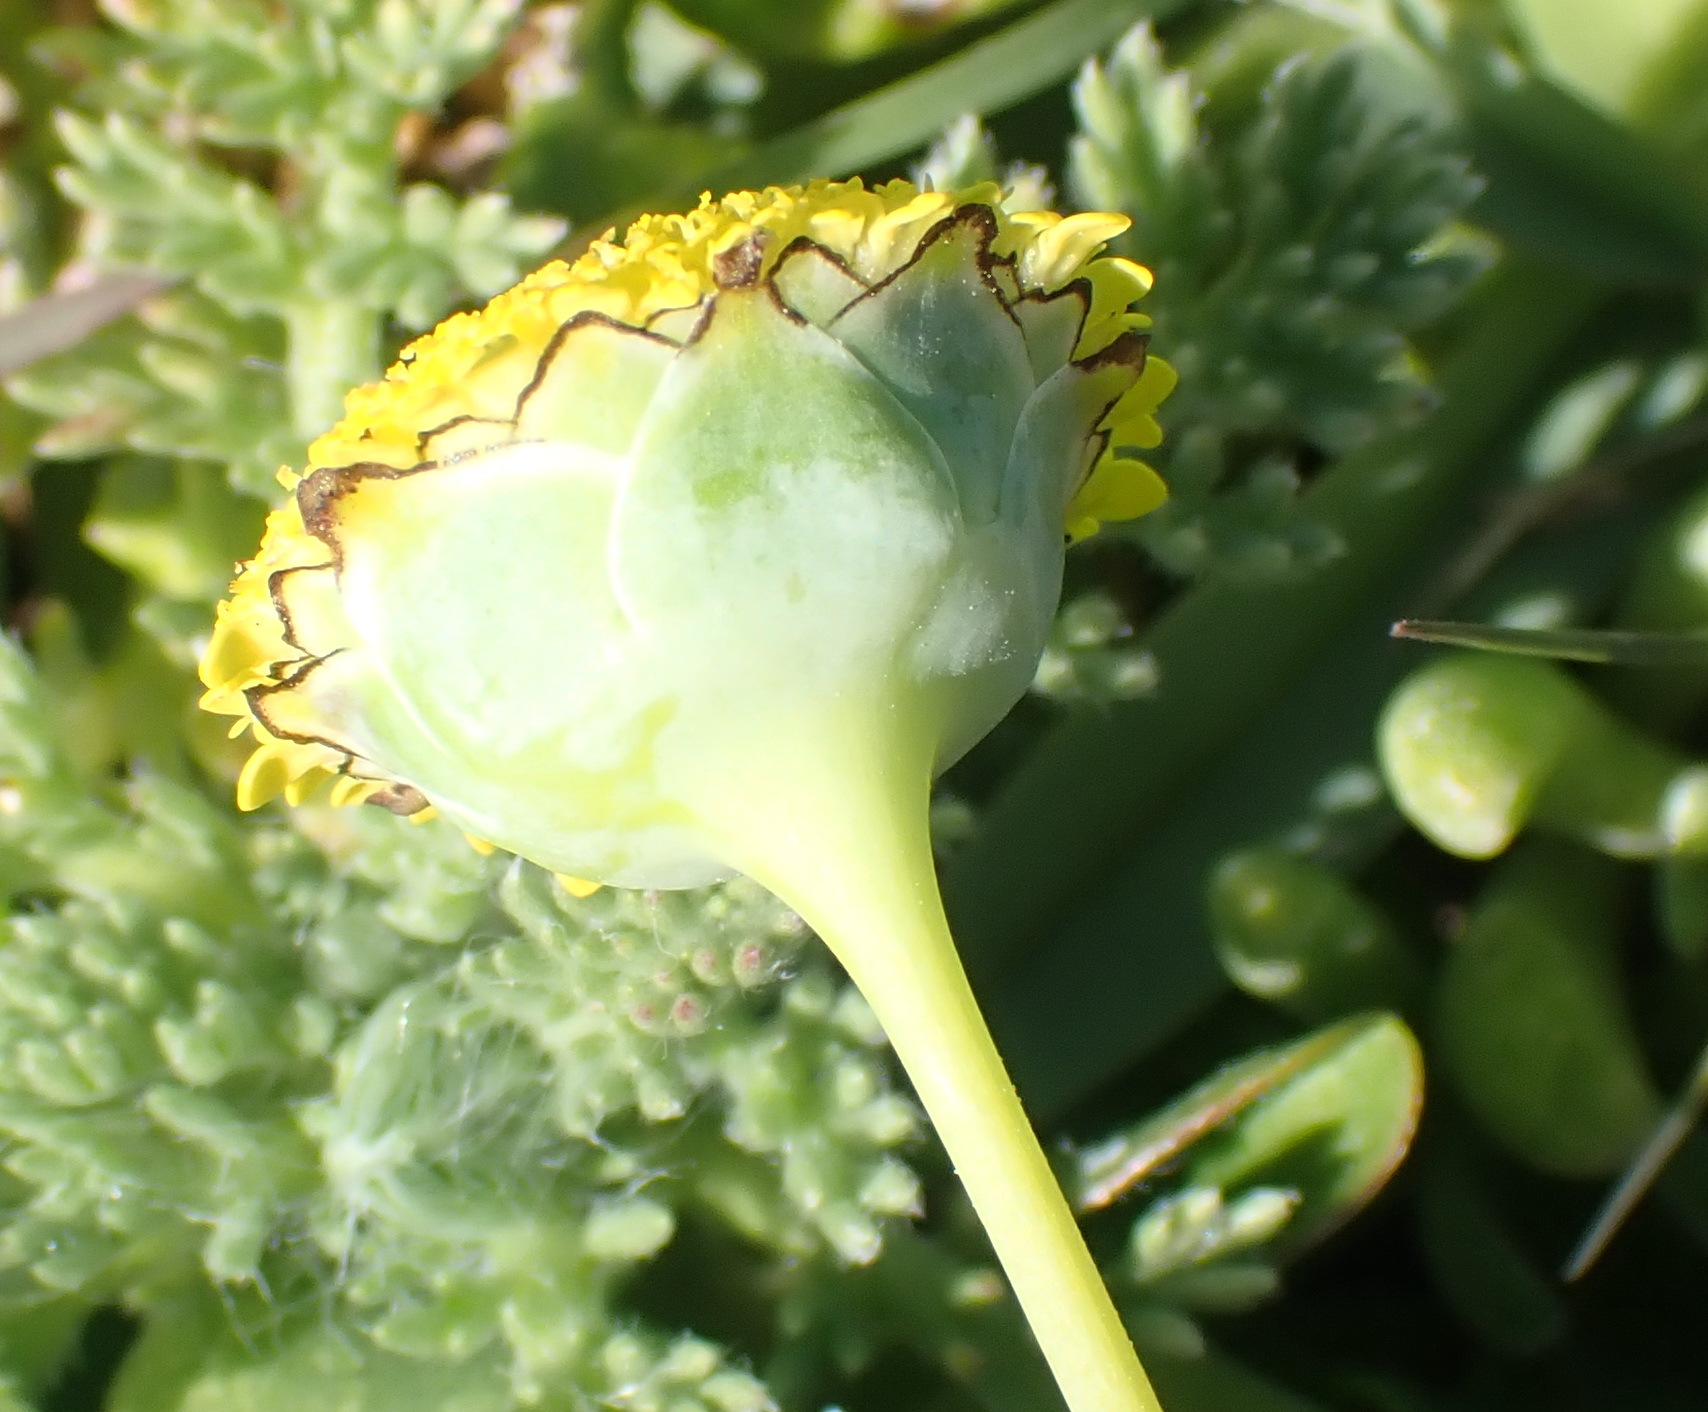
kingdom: Plantae
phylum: Tracheophyta
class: Magnoliopsida
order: Asterales
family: Asteraceae
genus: Cotula
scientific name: Cotula discolor
